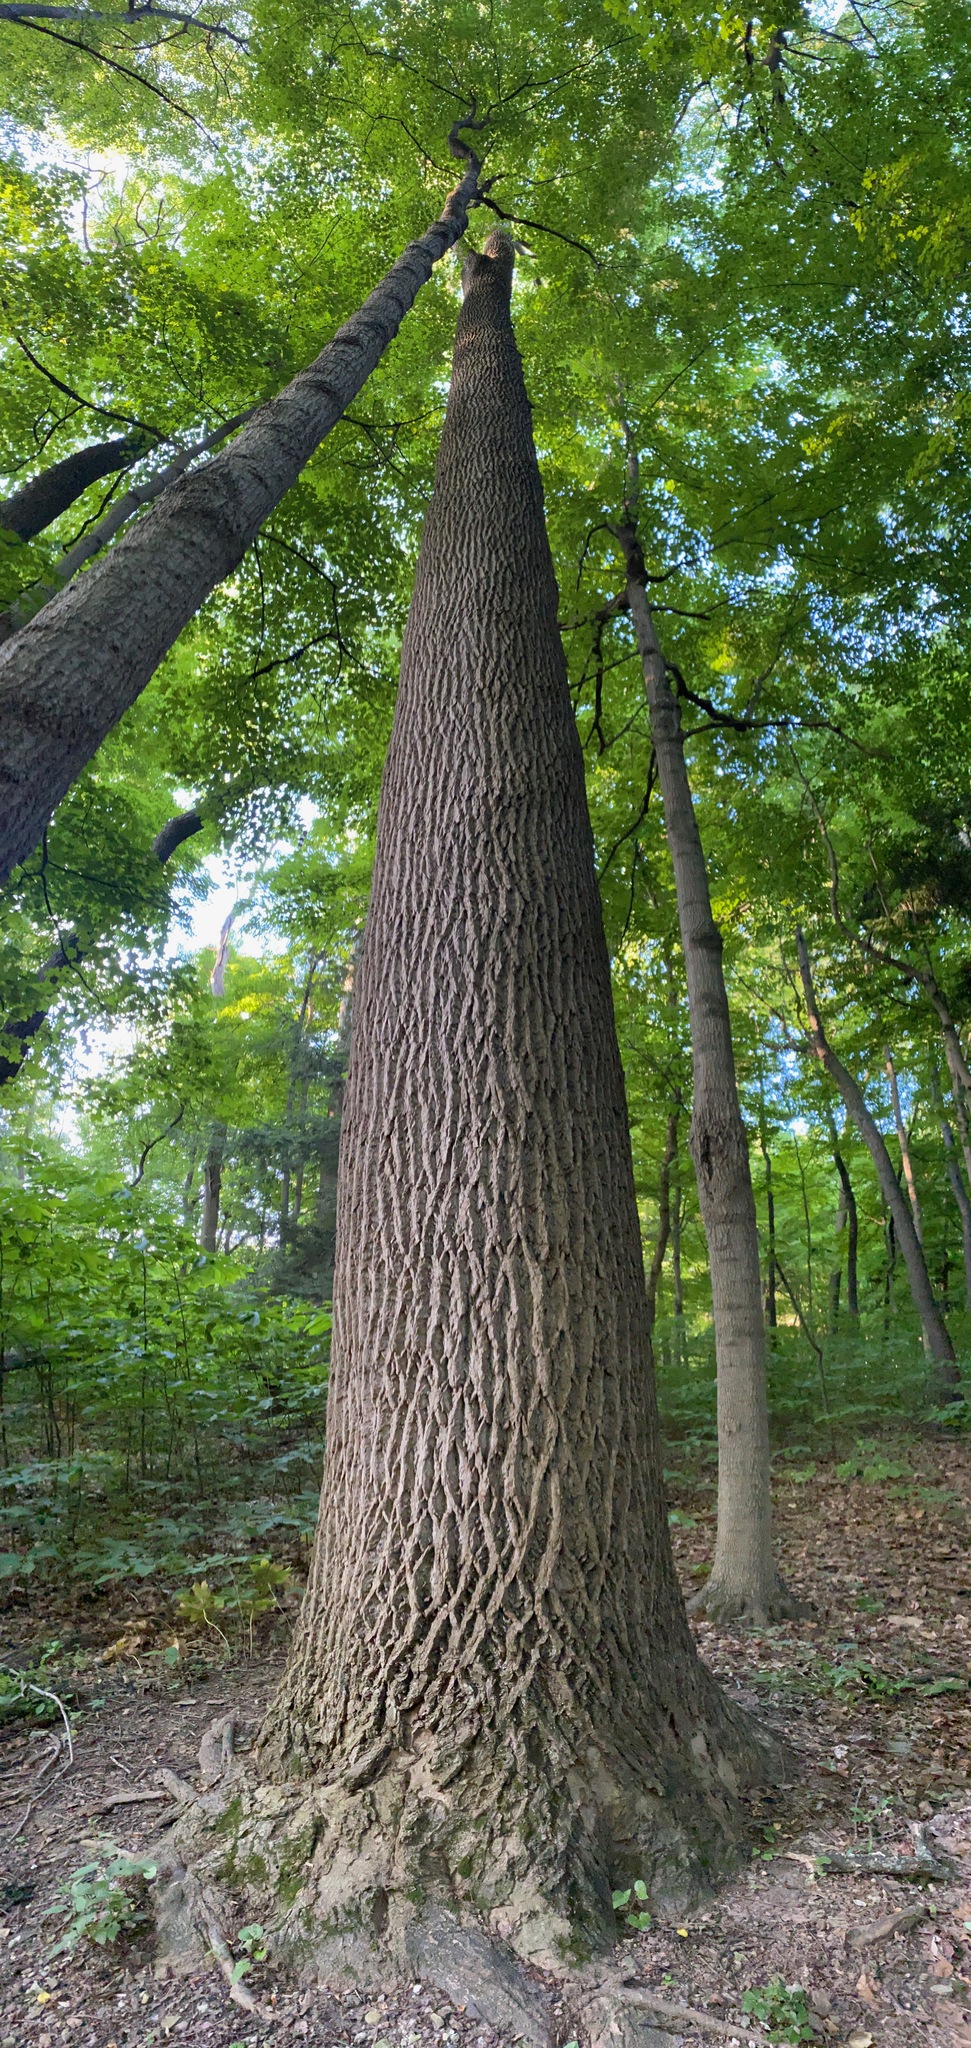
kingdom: Plantae
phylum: Tracheophyta
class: Magnoliopsida
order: Magnoliales
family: Magnoliaceae
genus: Liriodendron
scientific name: Liriodendron tulipifera
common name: Tulip tree
